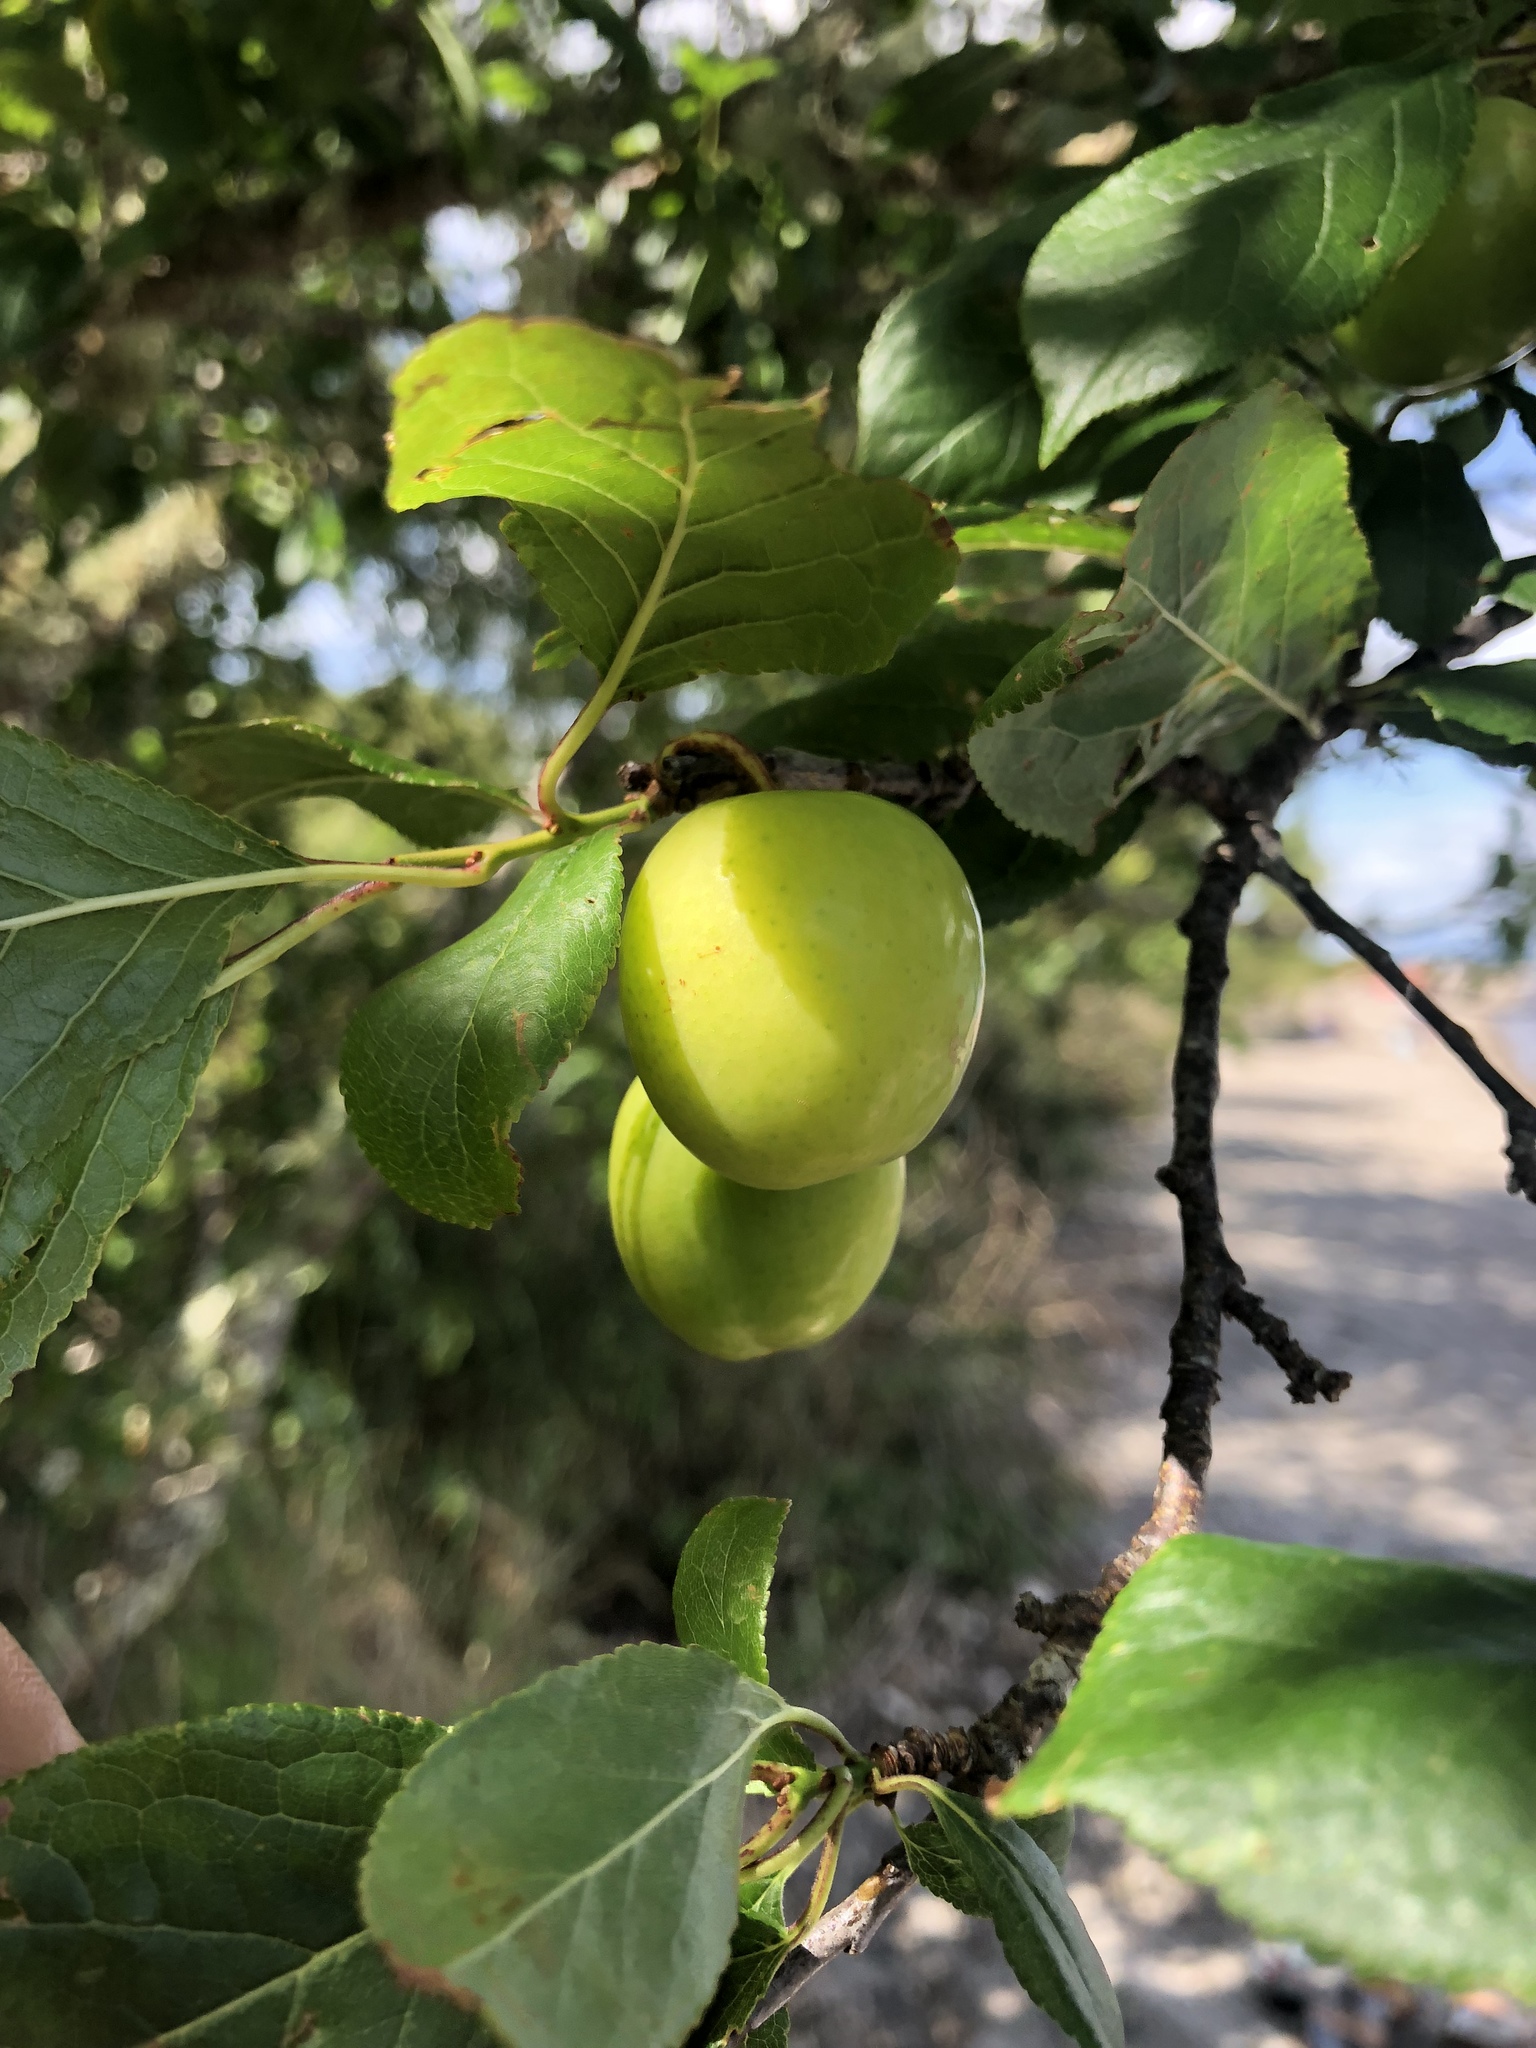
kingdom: Plantae
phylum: Tracheophyta
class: Magnoliopsida
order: Rosales
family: Rosaceae
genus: Prunus
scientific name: Prunus domestica
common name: Wild plum
